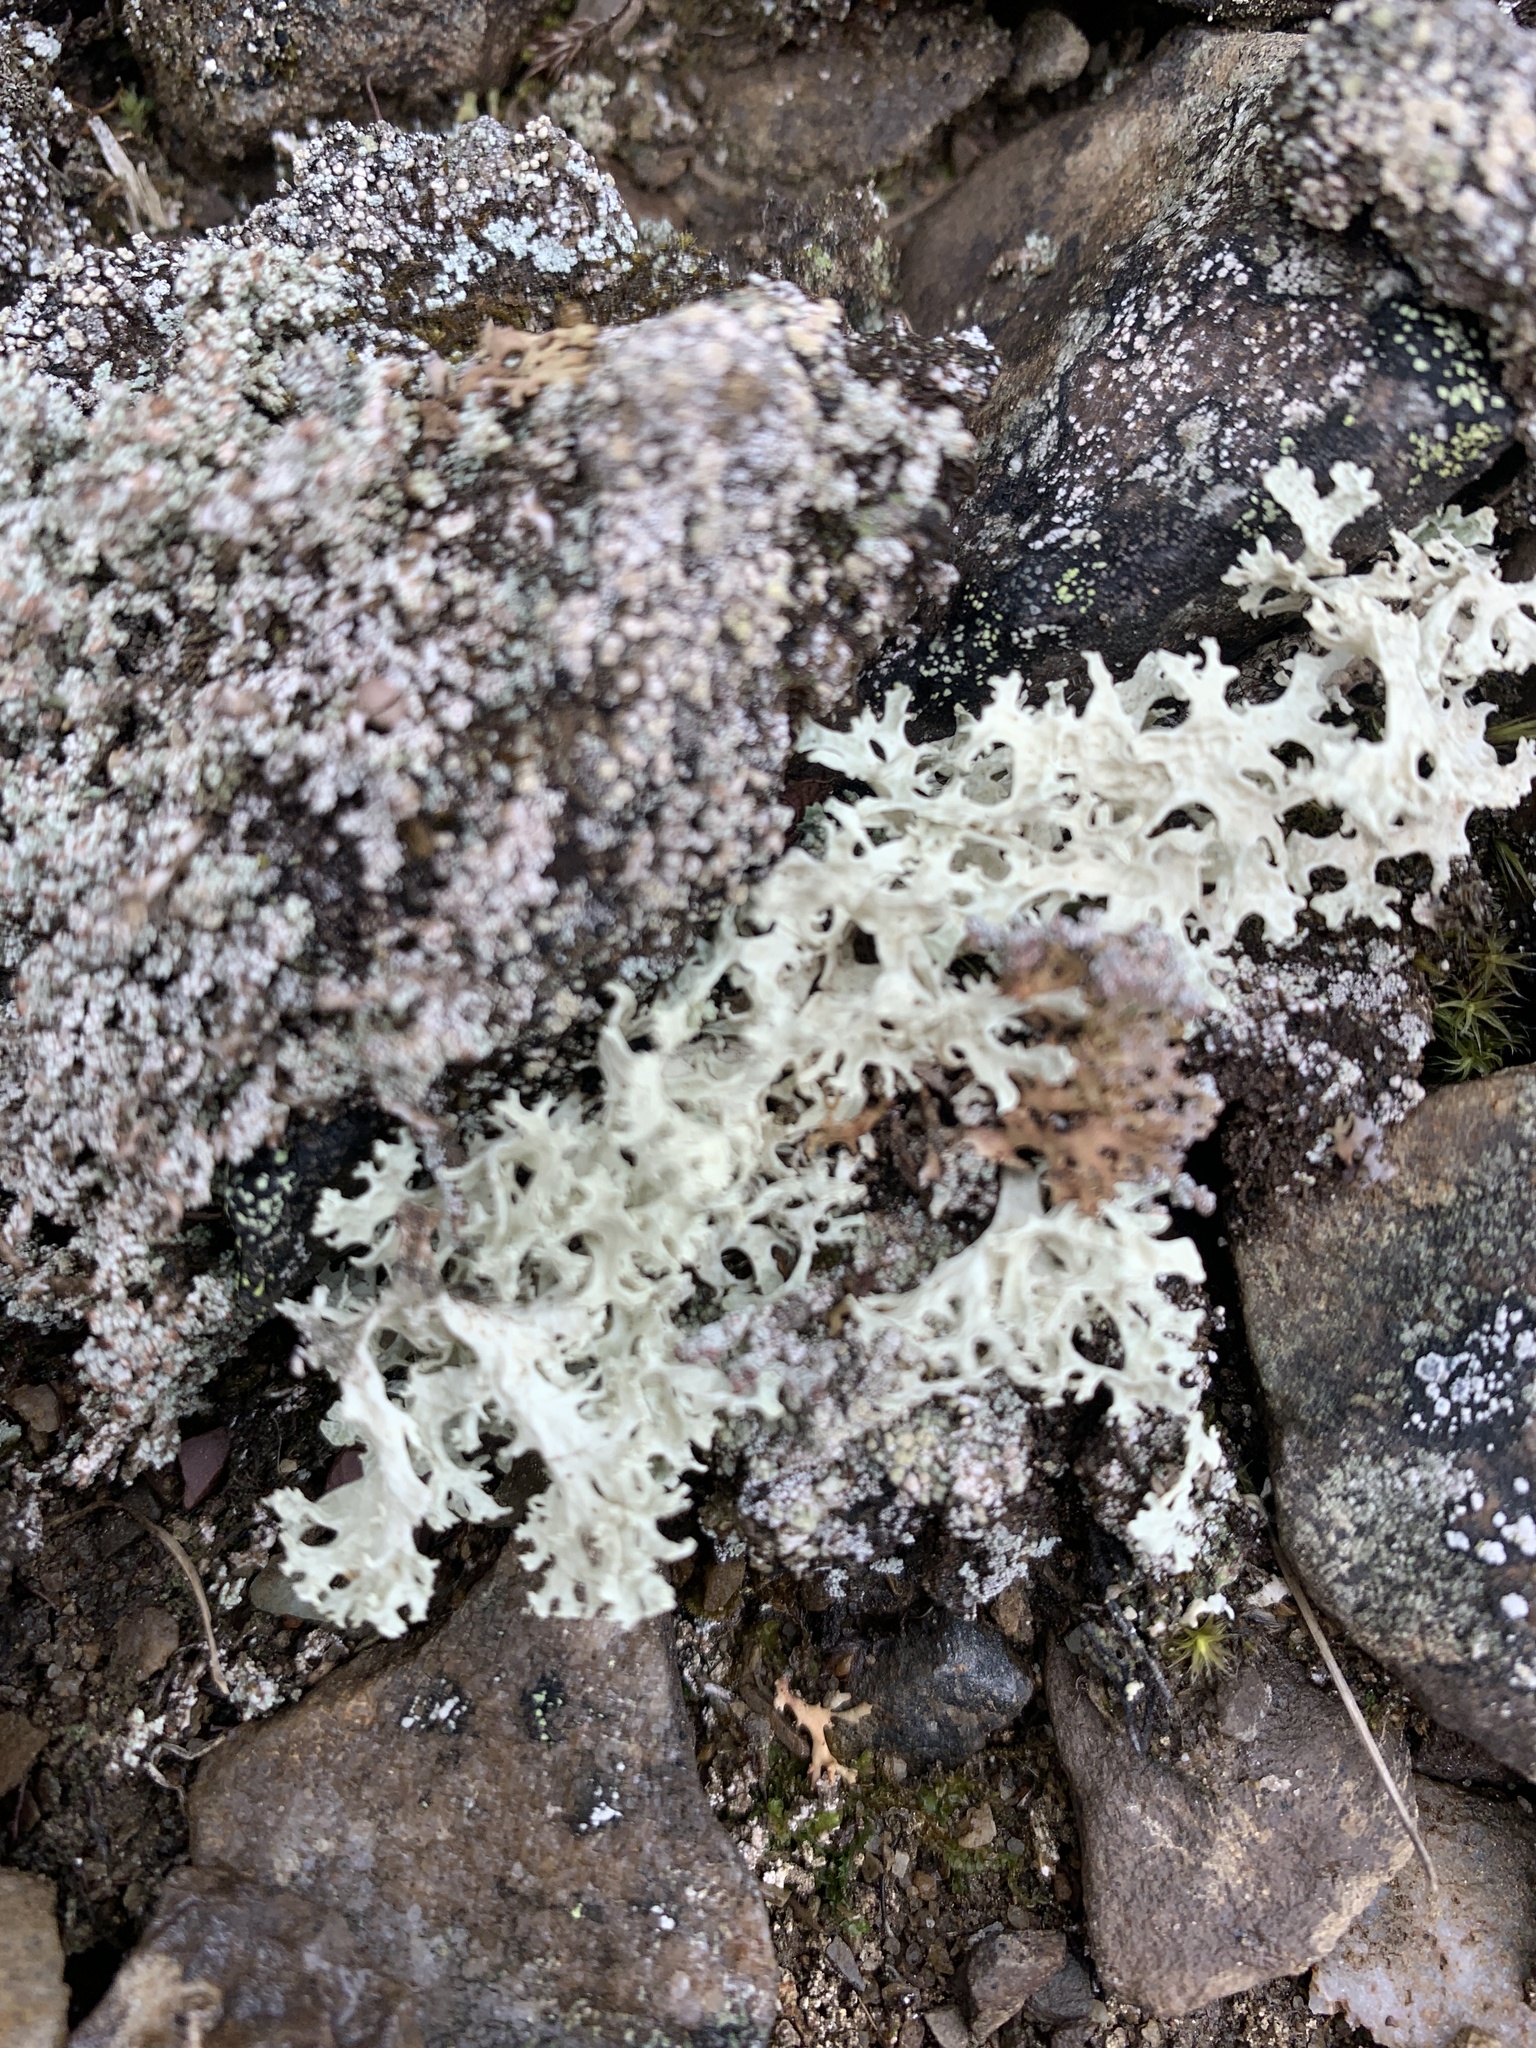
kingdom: Fungi
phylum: Ascomycota
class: Lecanoromycetes
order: Lecanorales
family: Parmeliaceae
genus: Nephromopsis
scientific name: Nephromopsis nivalis
